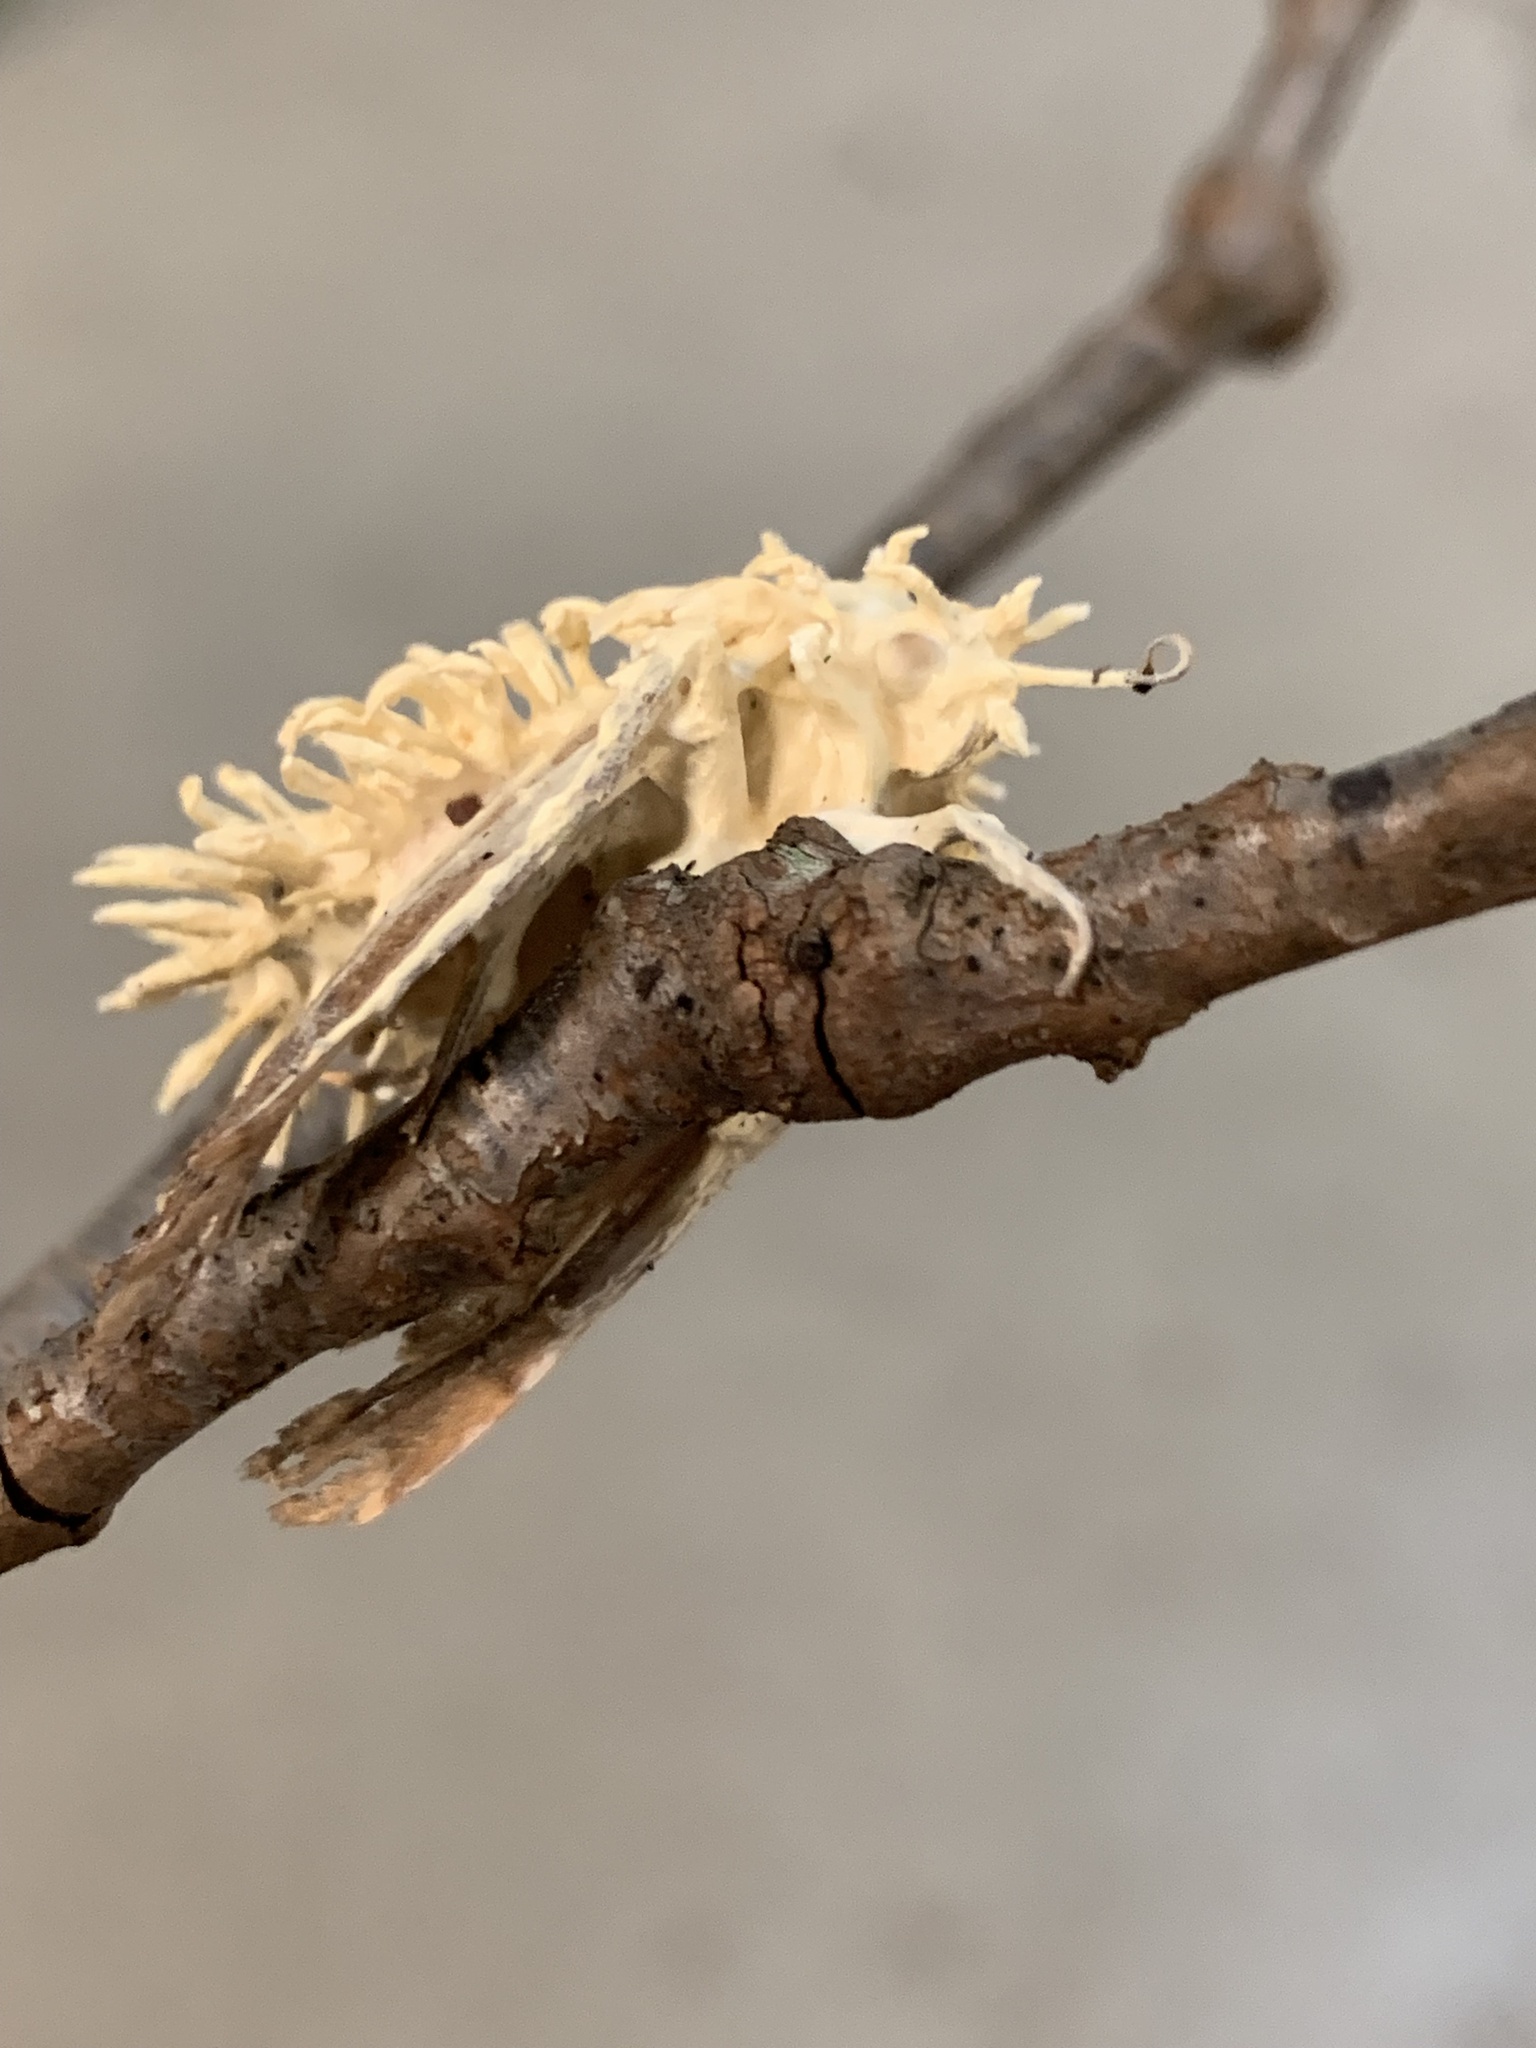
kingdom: Fungi
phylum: Ascomycota
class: Sordariomycetes
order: Hypocreales
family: Cordycipitaceae
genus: Akanthomyces
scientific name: Akanthomyces aranearum
